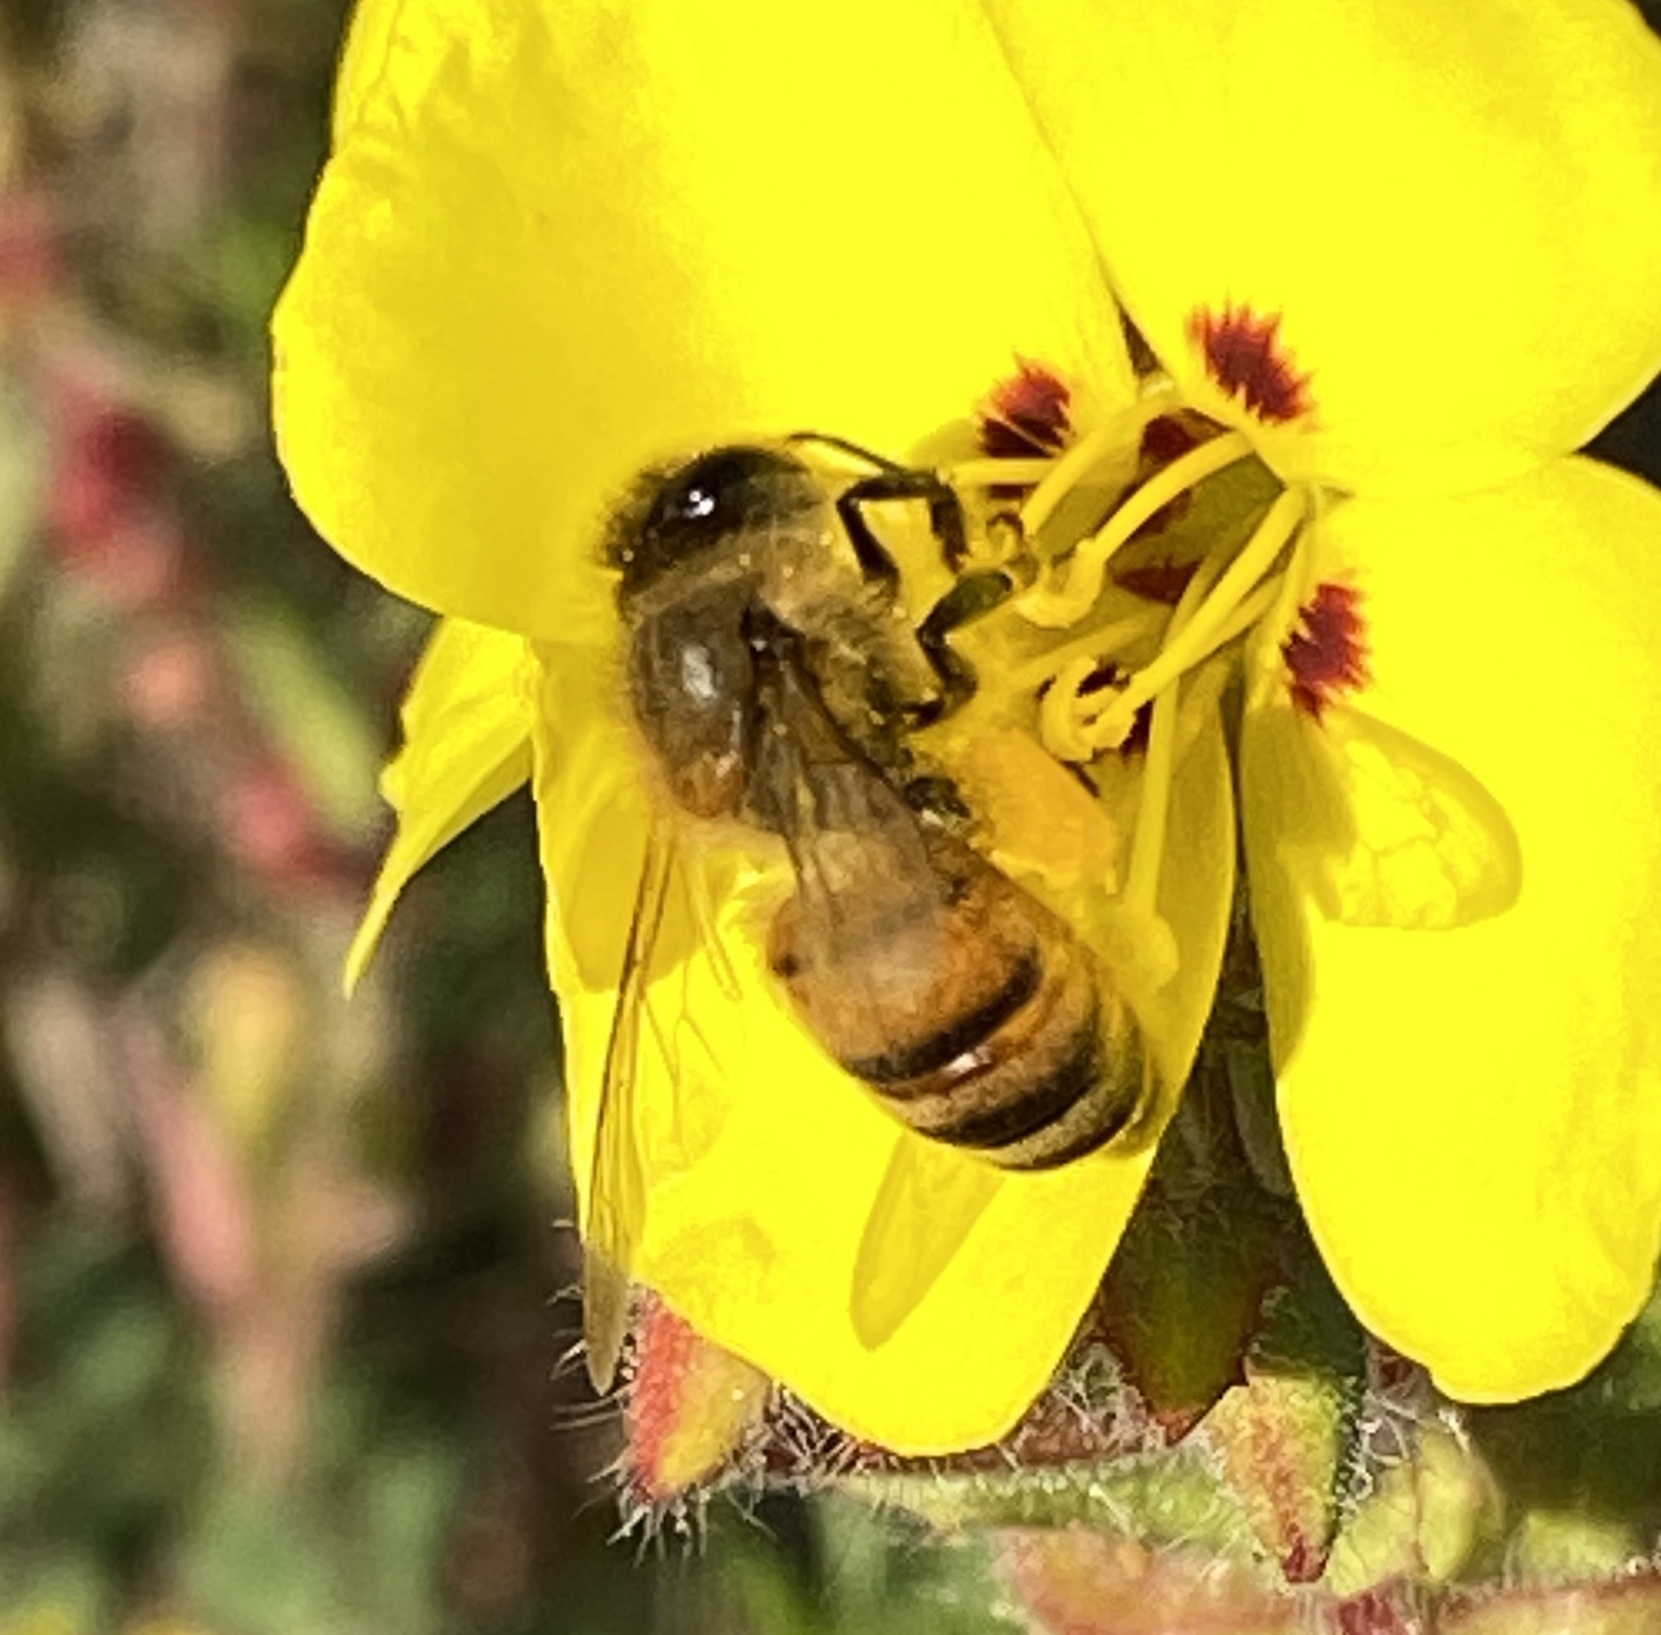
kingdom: Animalia
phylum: Arthropoda
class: Insecta
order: Hymenoptera
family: Apidae
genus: Apis
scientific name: Apis mellifera
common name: Honey bee
